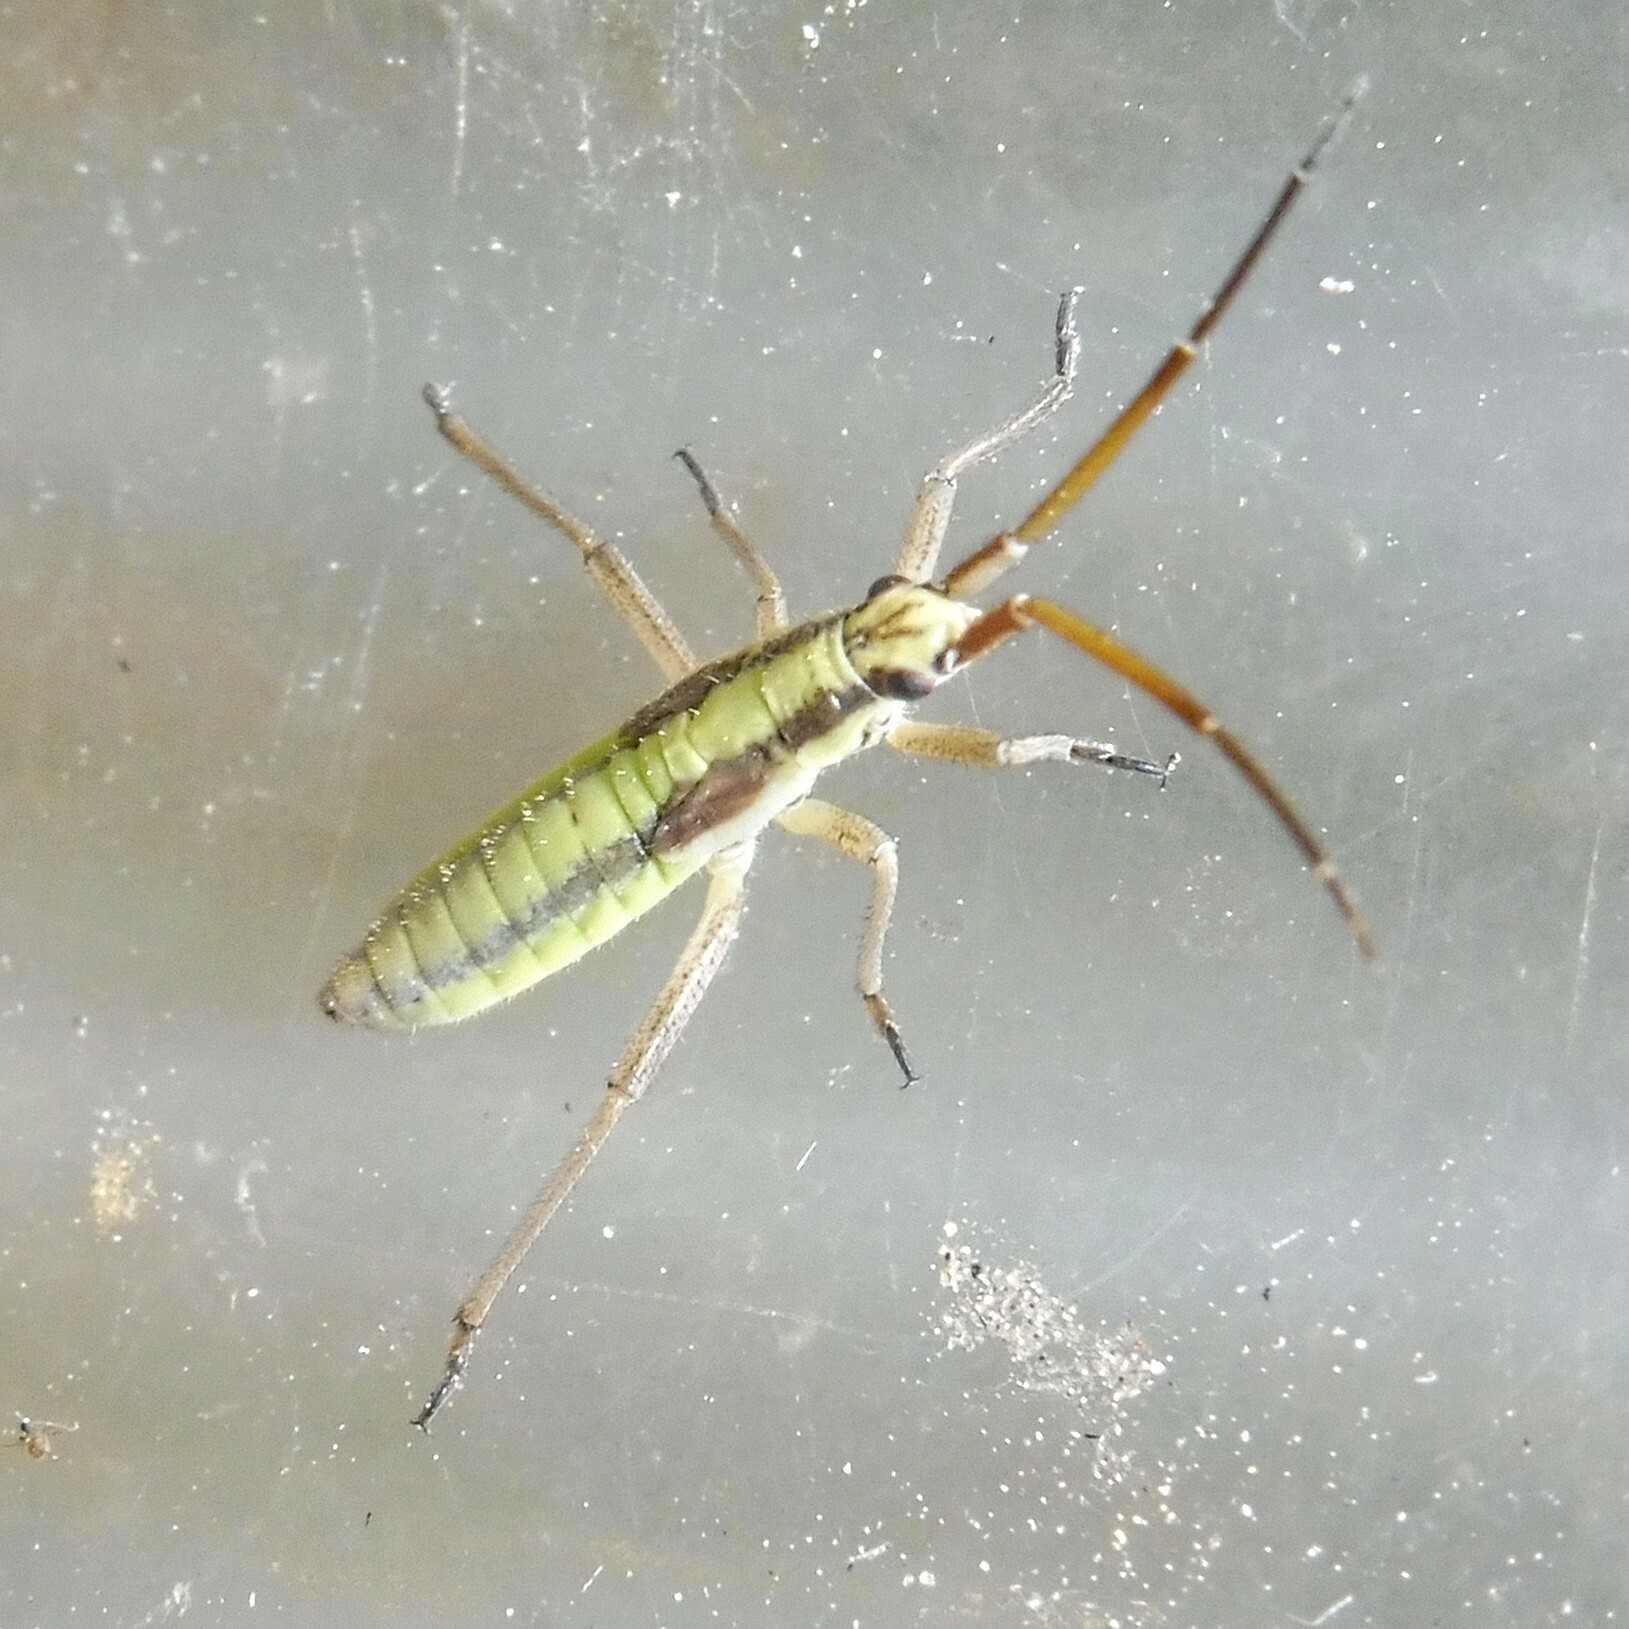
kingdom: Animalia
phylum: Arthropoda
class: Insecta
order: Hemiptera
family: Miridae
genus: Leptopterna
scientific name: Leptopterna ferrugata
